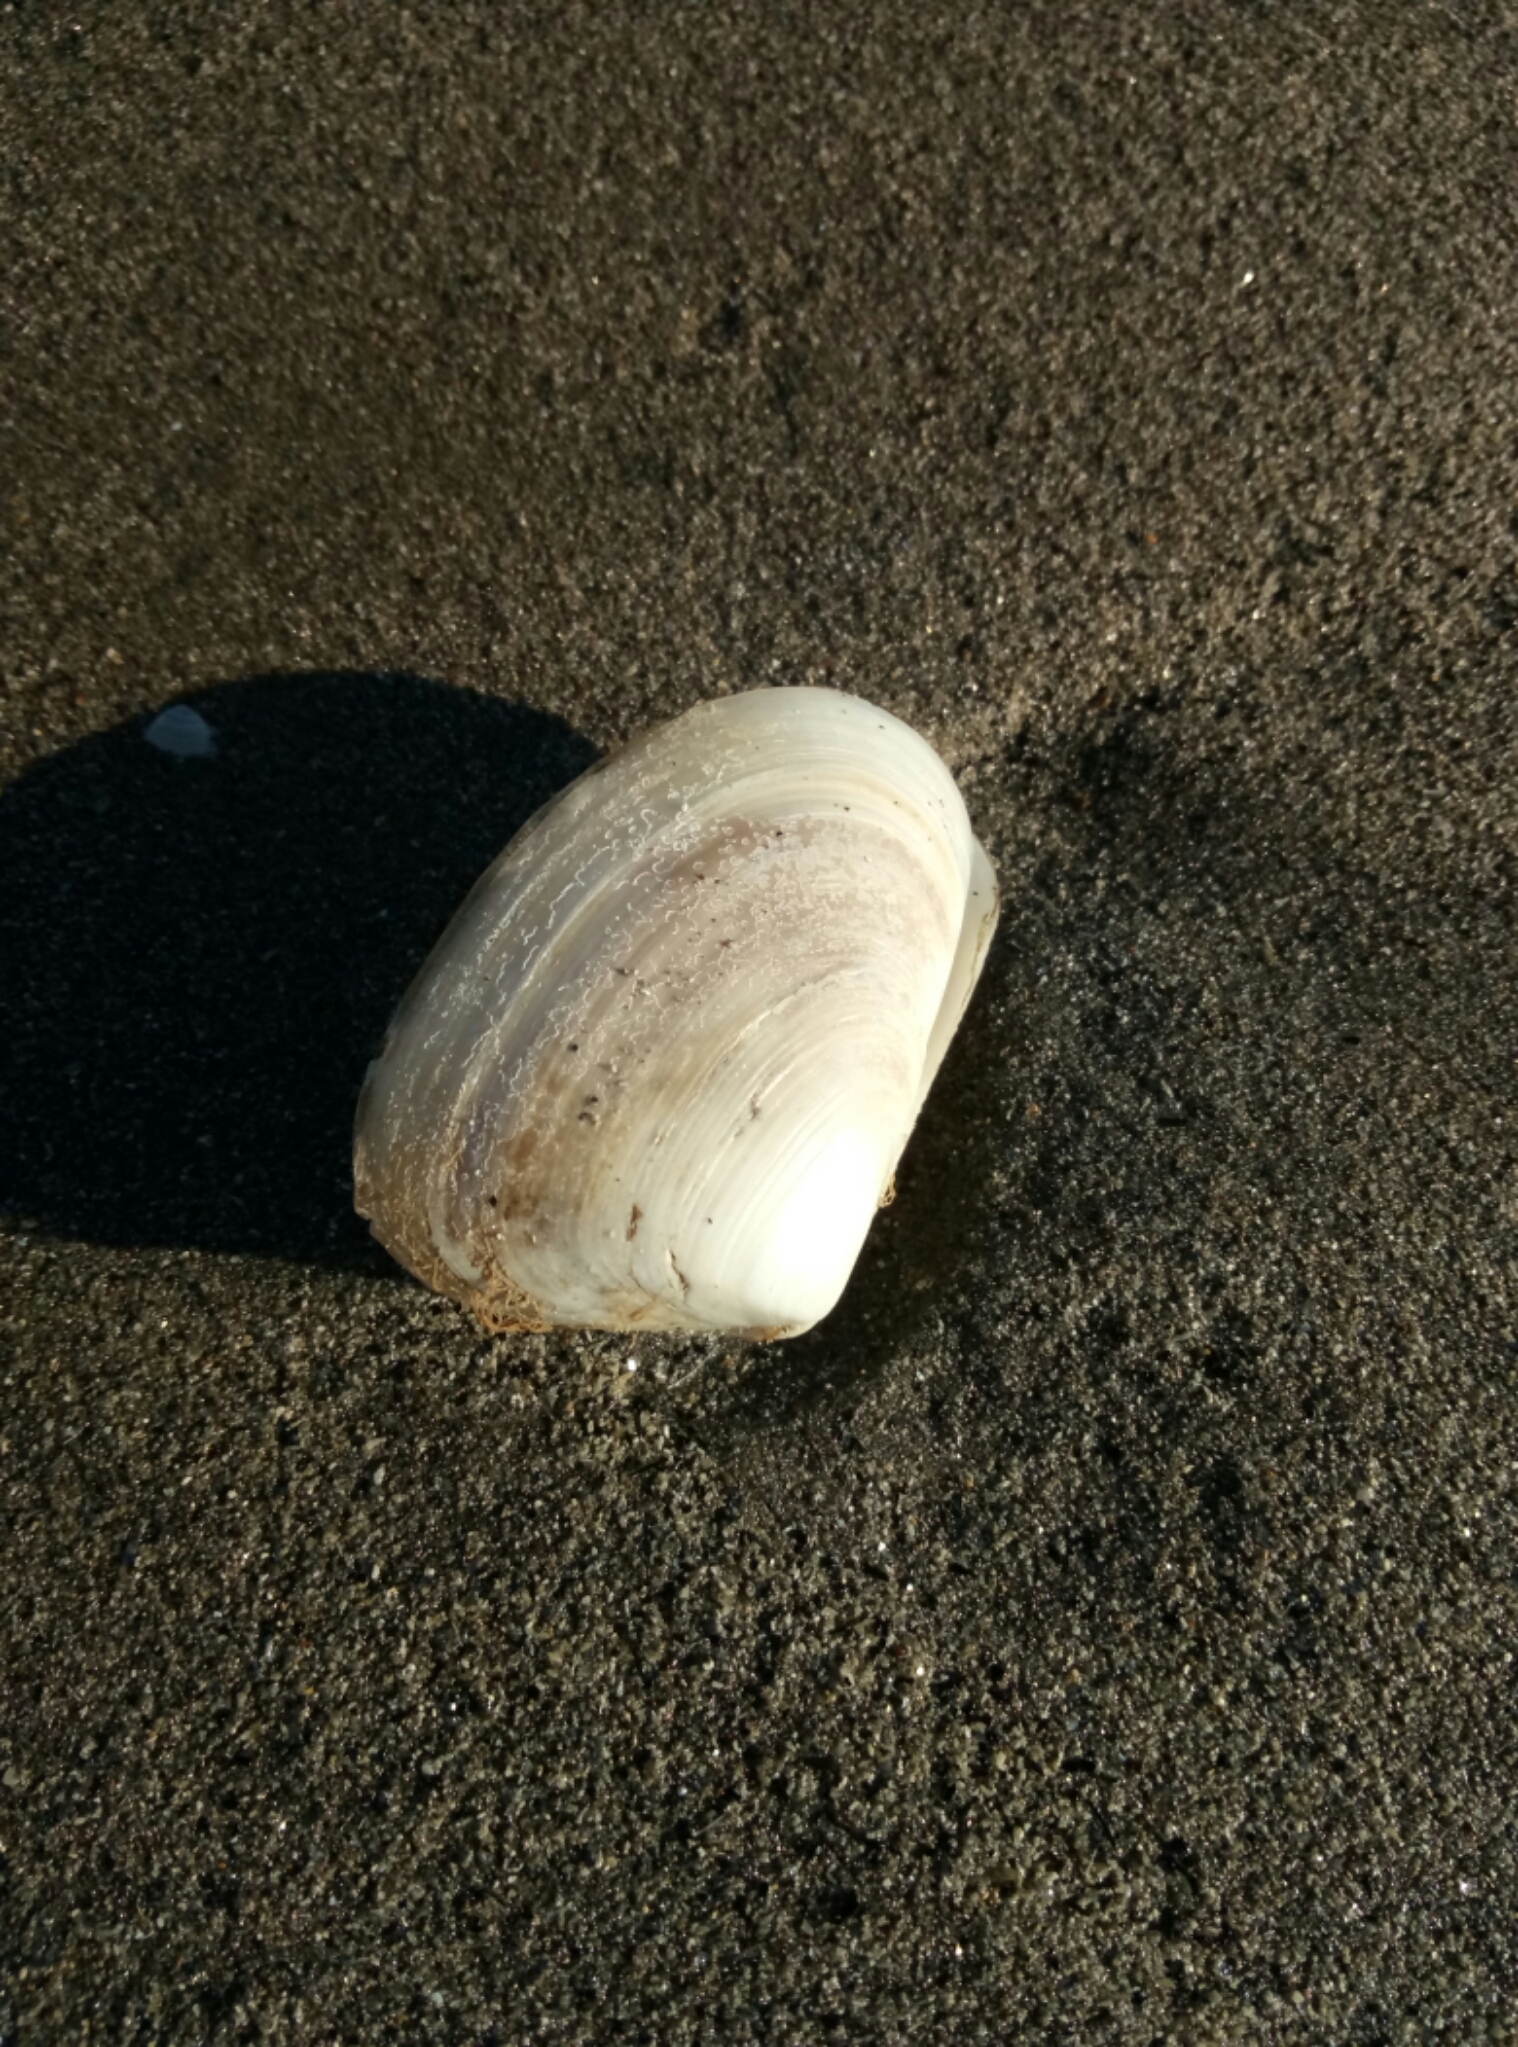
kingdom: Animalia
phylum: Mollusca
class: Bivalvia
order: Venerida
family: Mesodesmatidae
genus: Paphies
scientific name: Paphies subtriangulata
